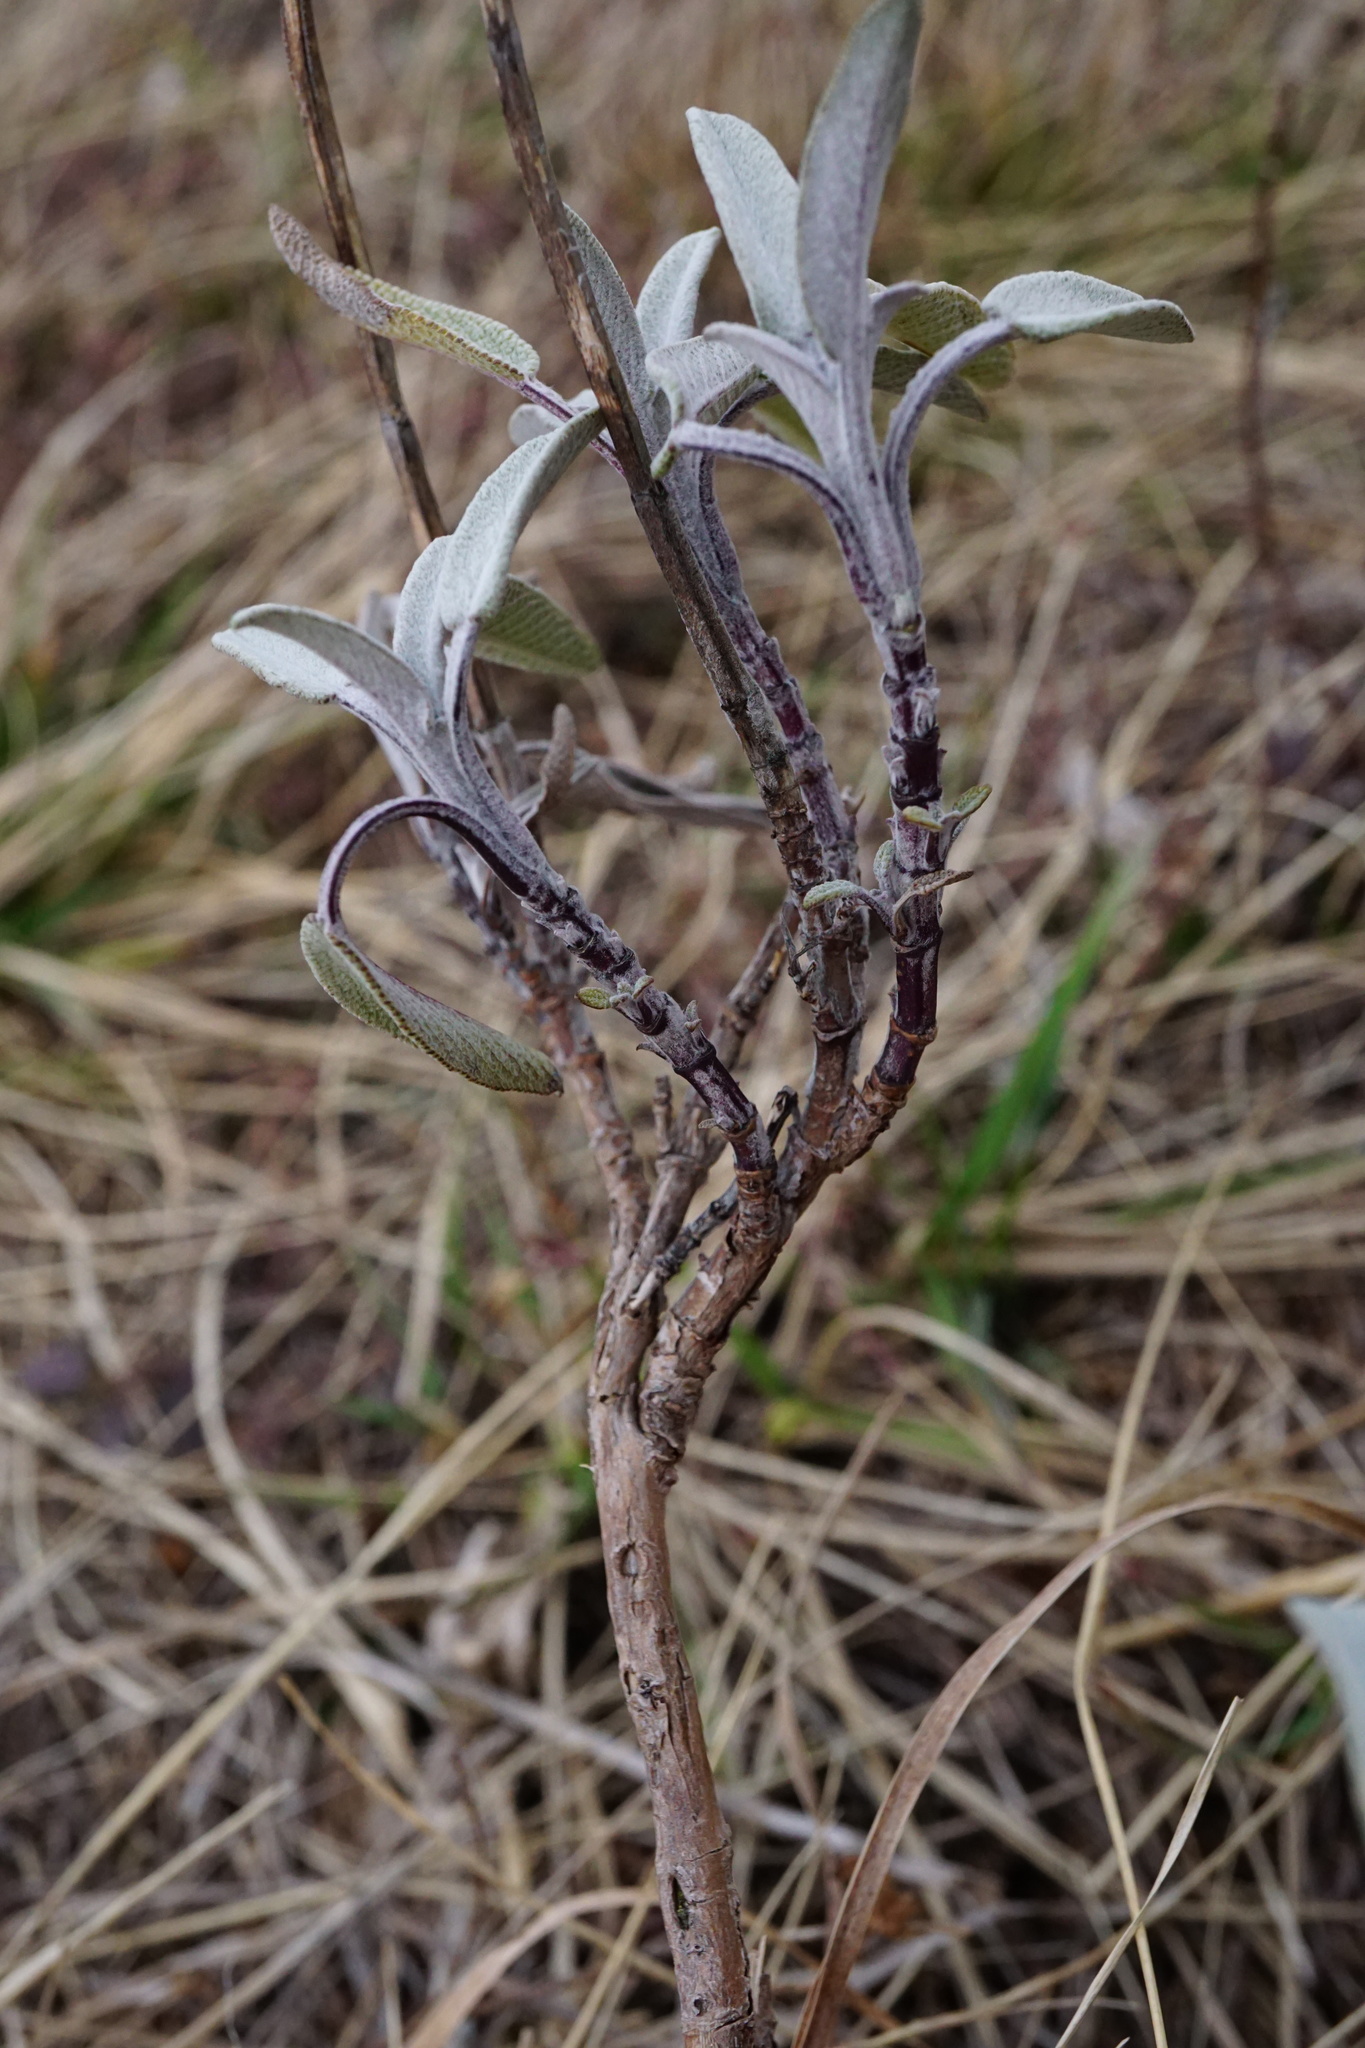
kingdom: Plantae
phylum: Tracheophyta
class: Magnoliopsida
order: Lamiales
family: Lamiaceae
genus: Salvia
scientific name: Salvia officinalis
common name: Sage
